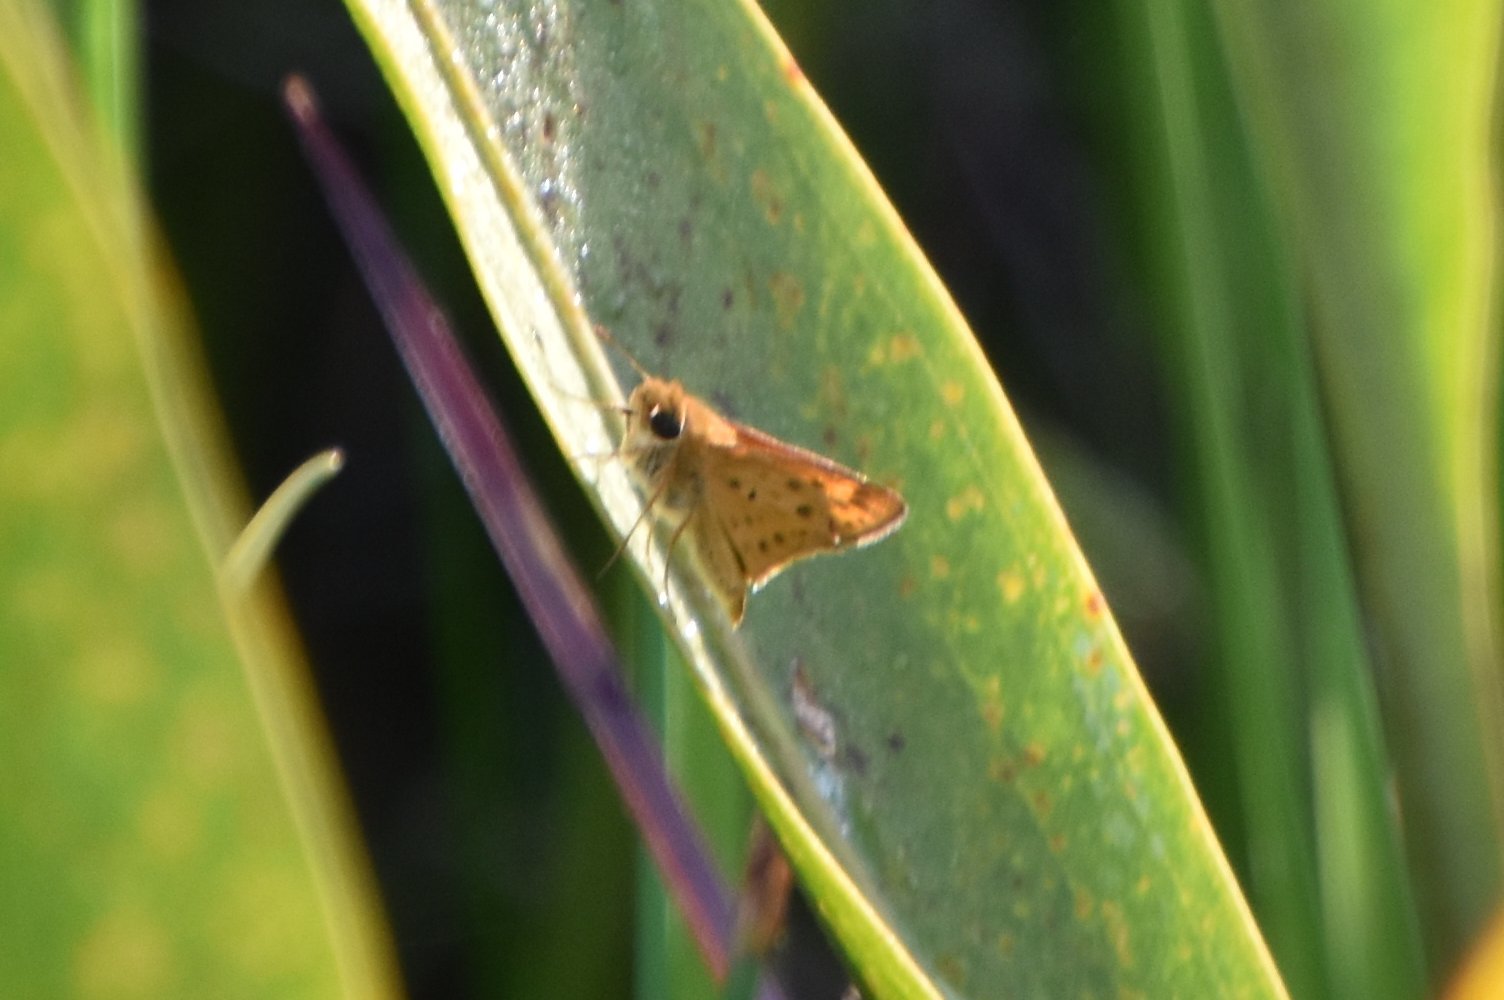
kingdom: Animalia
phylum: Arthropoda
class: Insecta
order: Lepidoptera
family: Hesperiidae
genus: Hylephila
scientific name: Hylephila phyleus
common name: Fiery skipper
